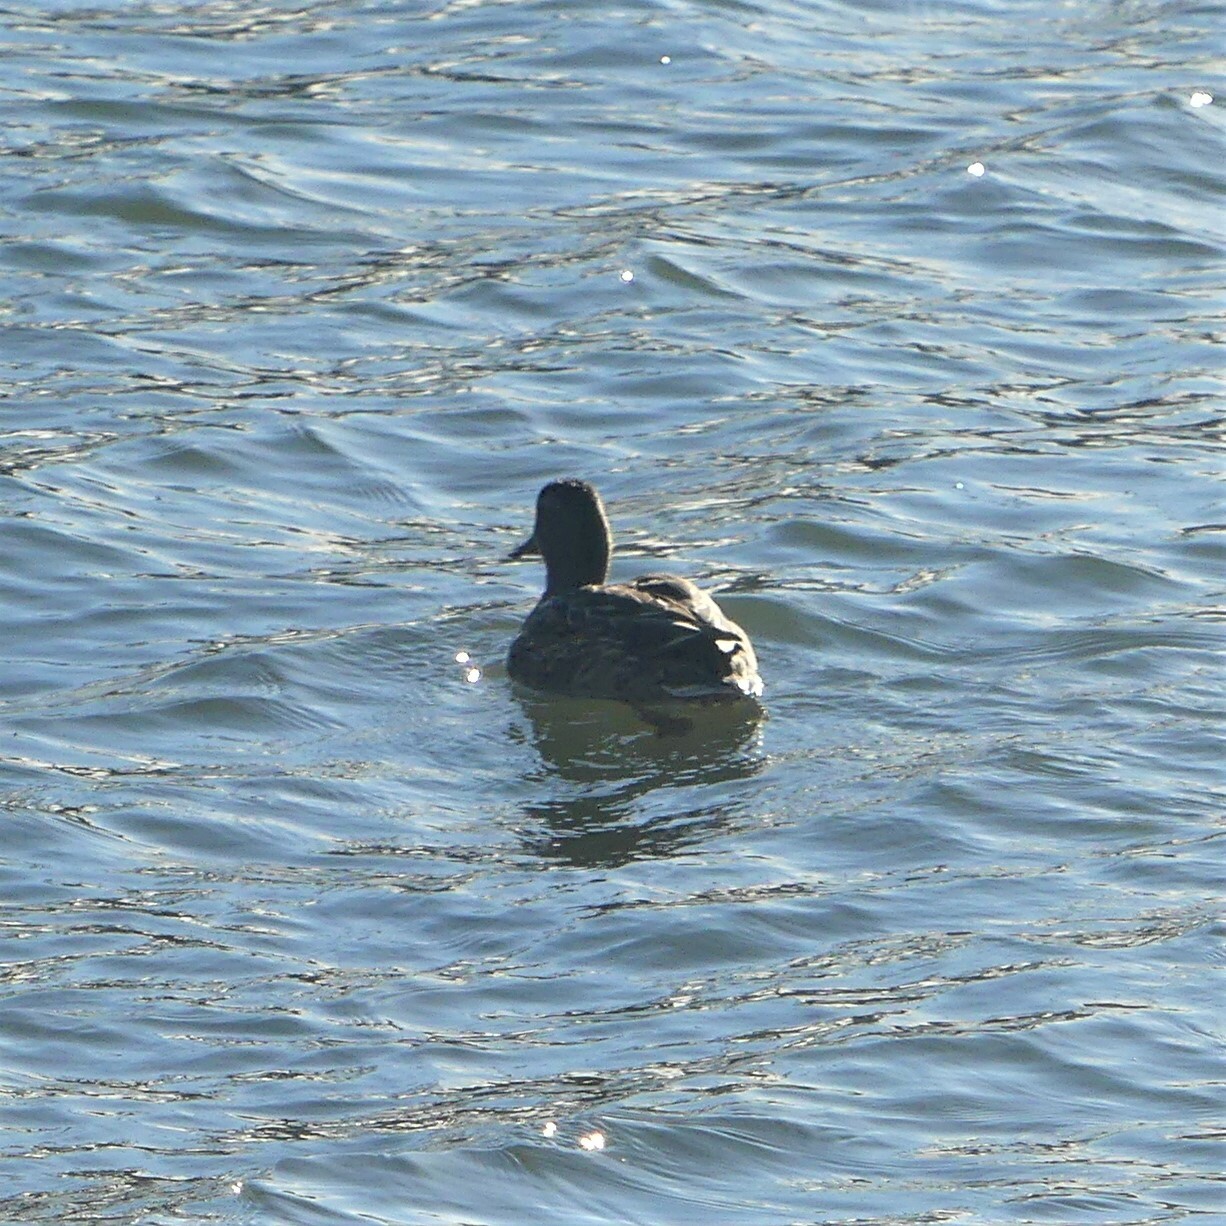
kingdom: Animalia
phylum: Chordata
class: Aves
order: Anseriformes
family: Anatidae
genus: Anas
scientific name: Anas platyrhynchos
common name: Mallard
